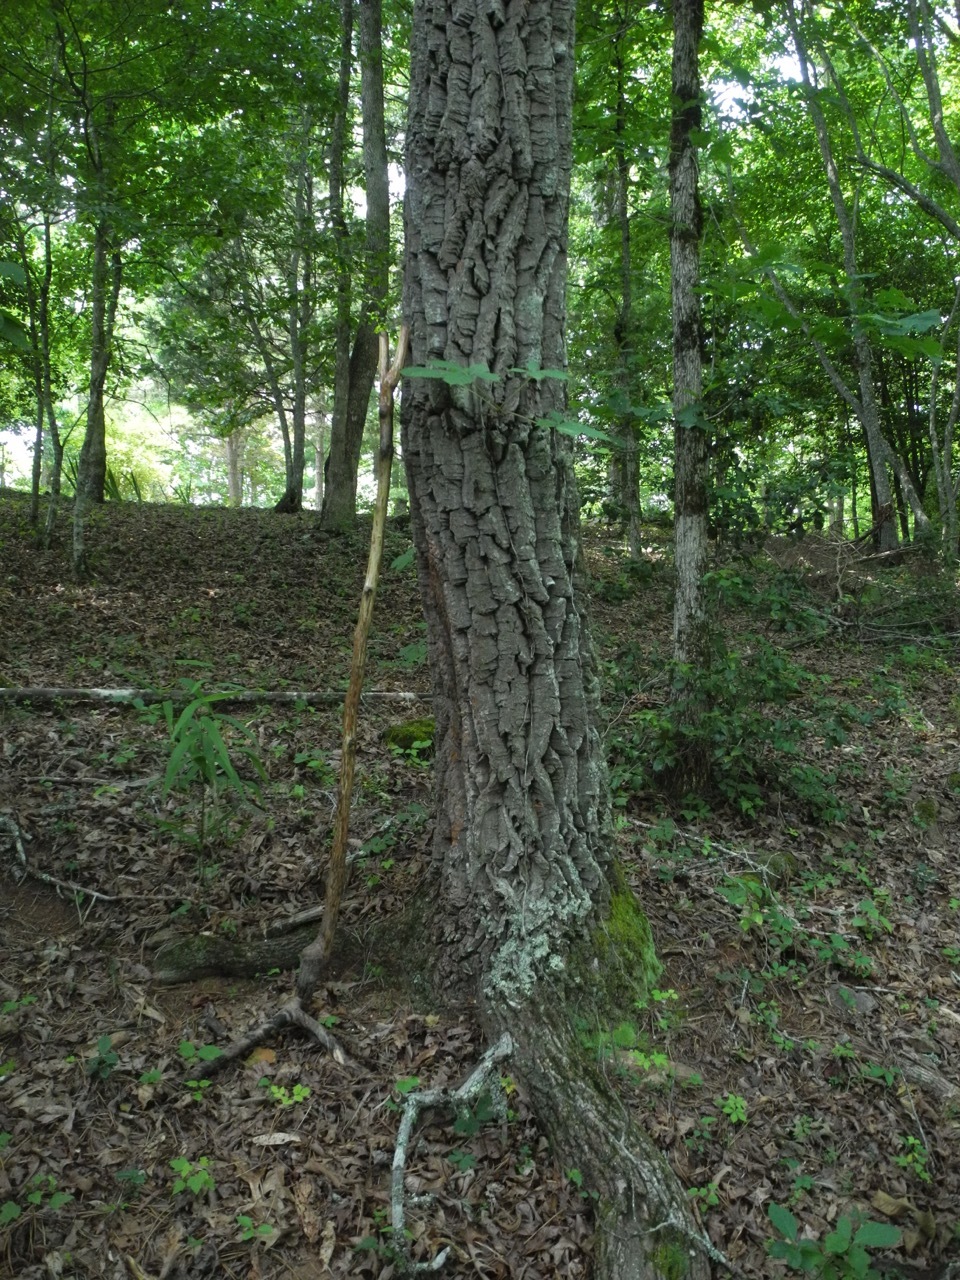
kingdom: Plantae
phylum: Tracheophyta
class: Magnoliopsida
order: Ericales
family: Ericaceae
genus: Oxydendrum
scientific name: Oxydendrum arboreum
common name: Sourwood
